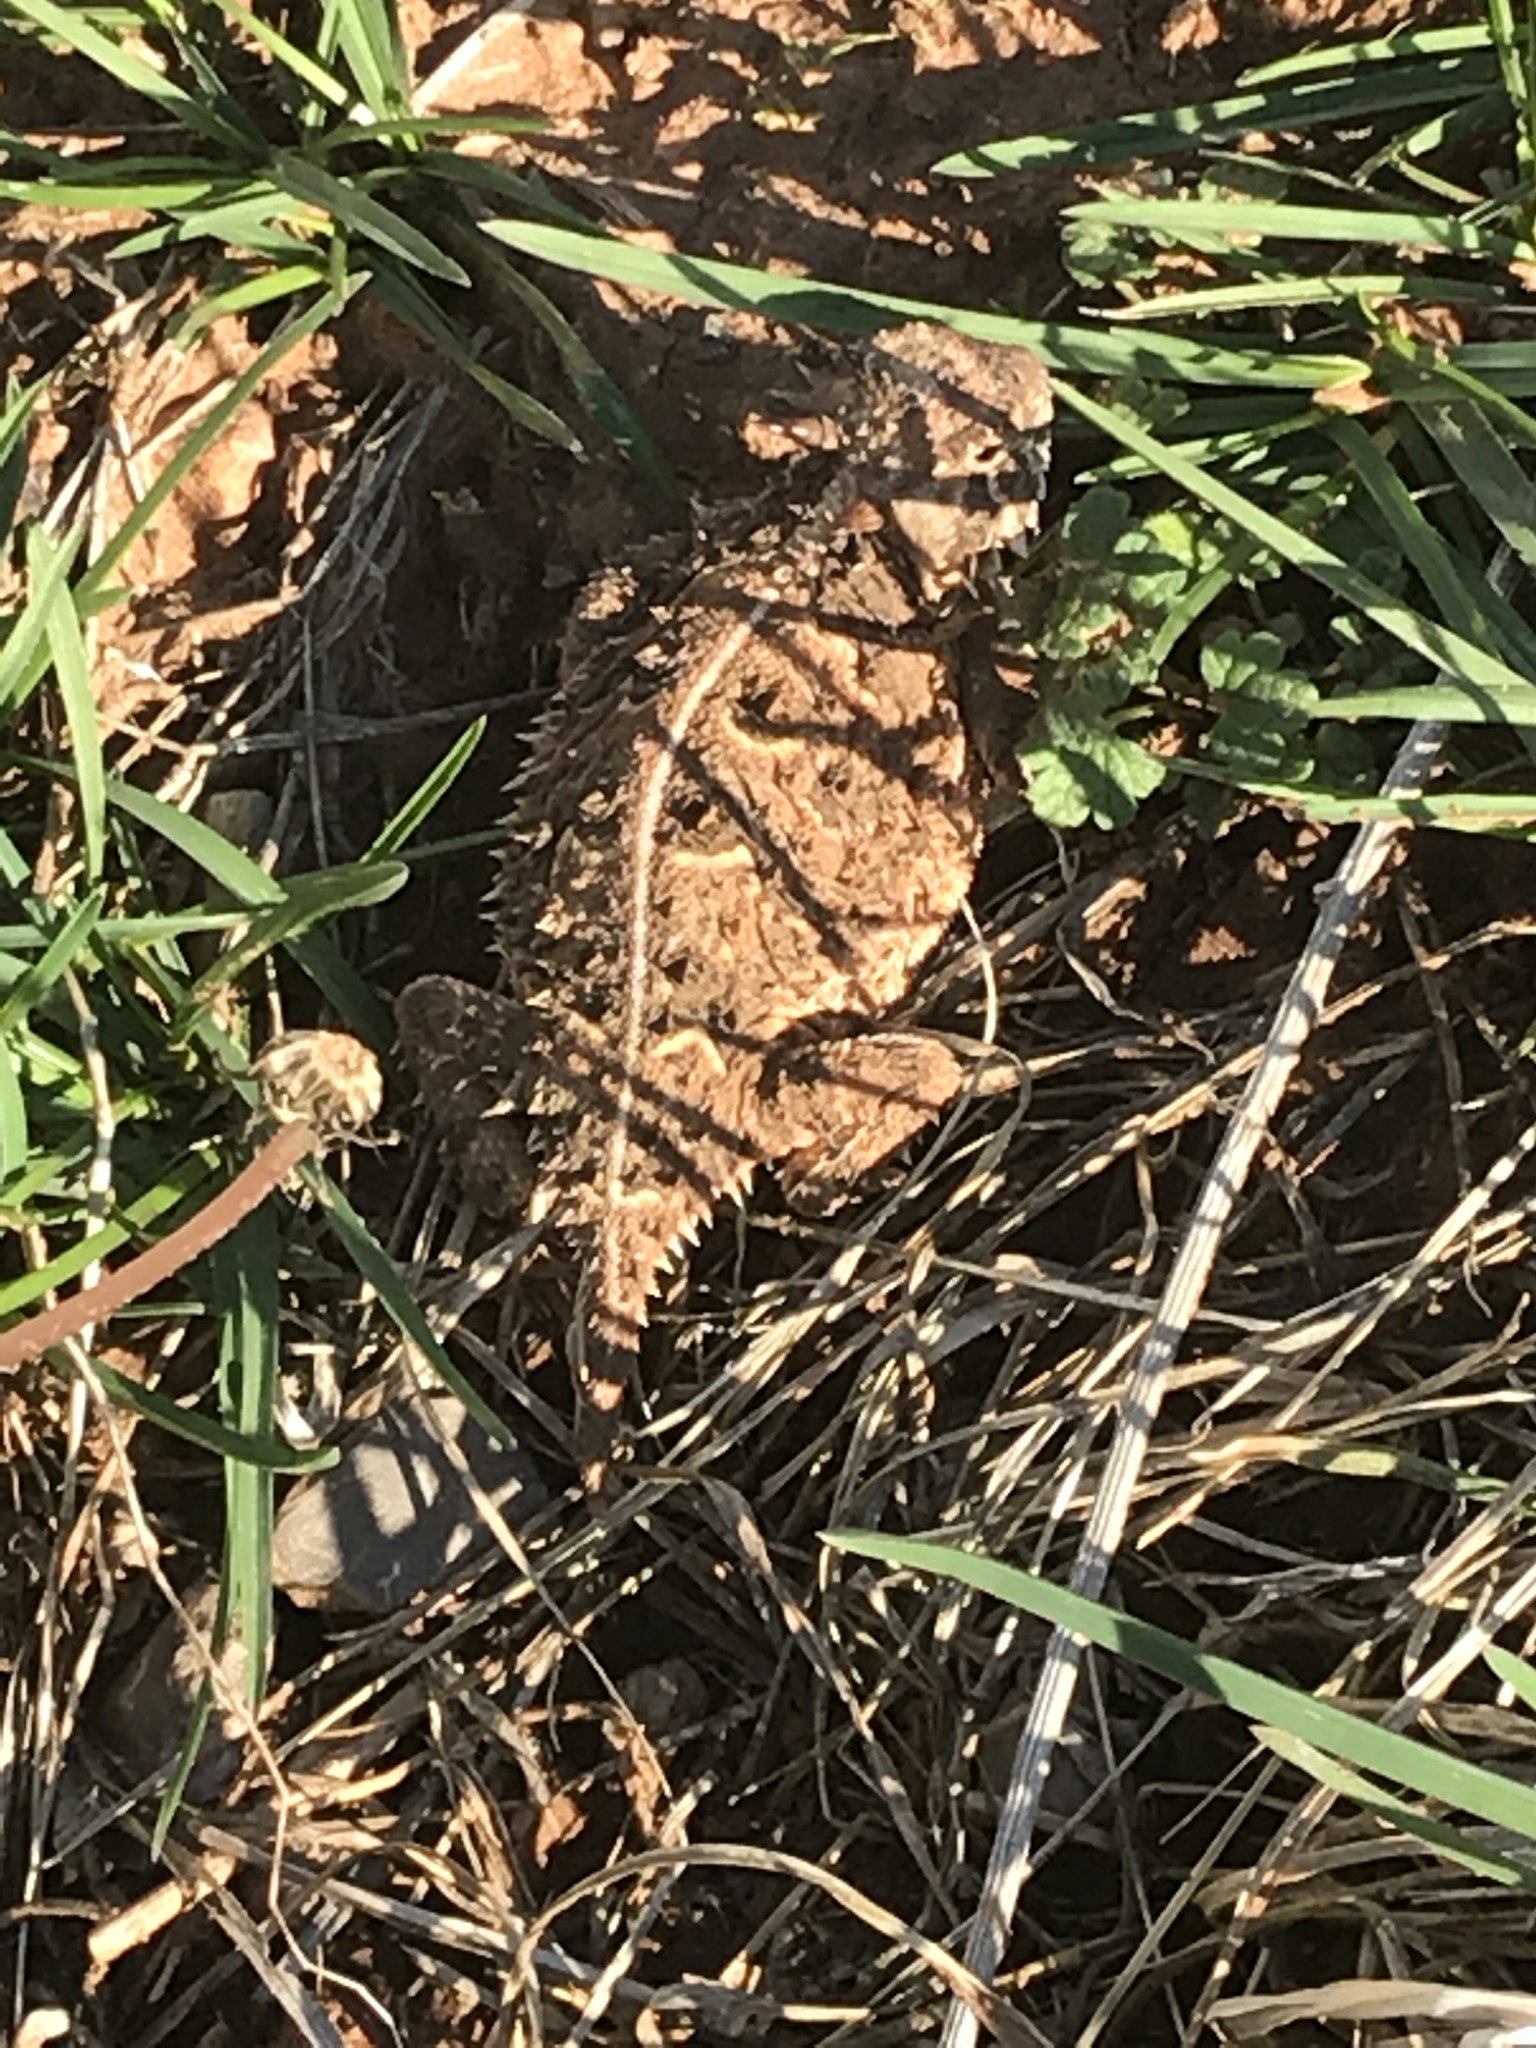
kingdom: Animalia
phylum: Chordata
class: Squamata
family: Phrynosomatidae
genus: Phrynosoma
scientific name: Phrynosoma cornutum
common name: Texas horned lizard
